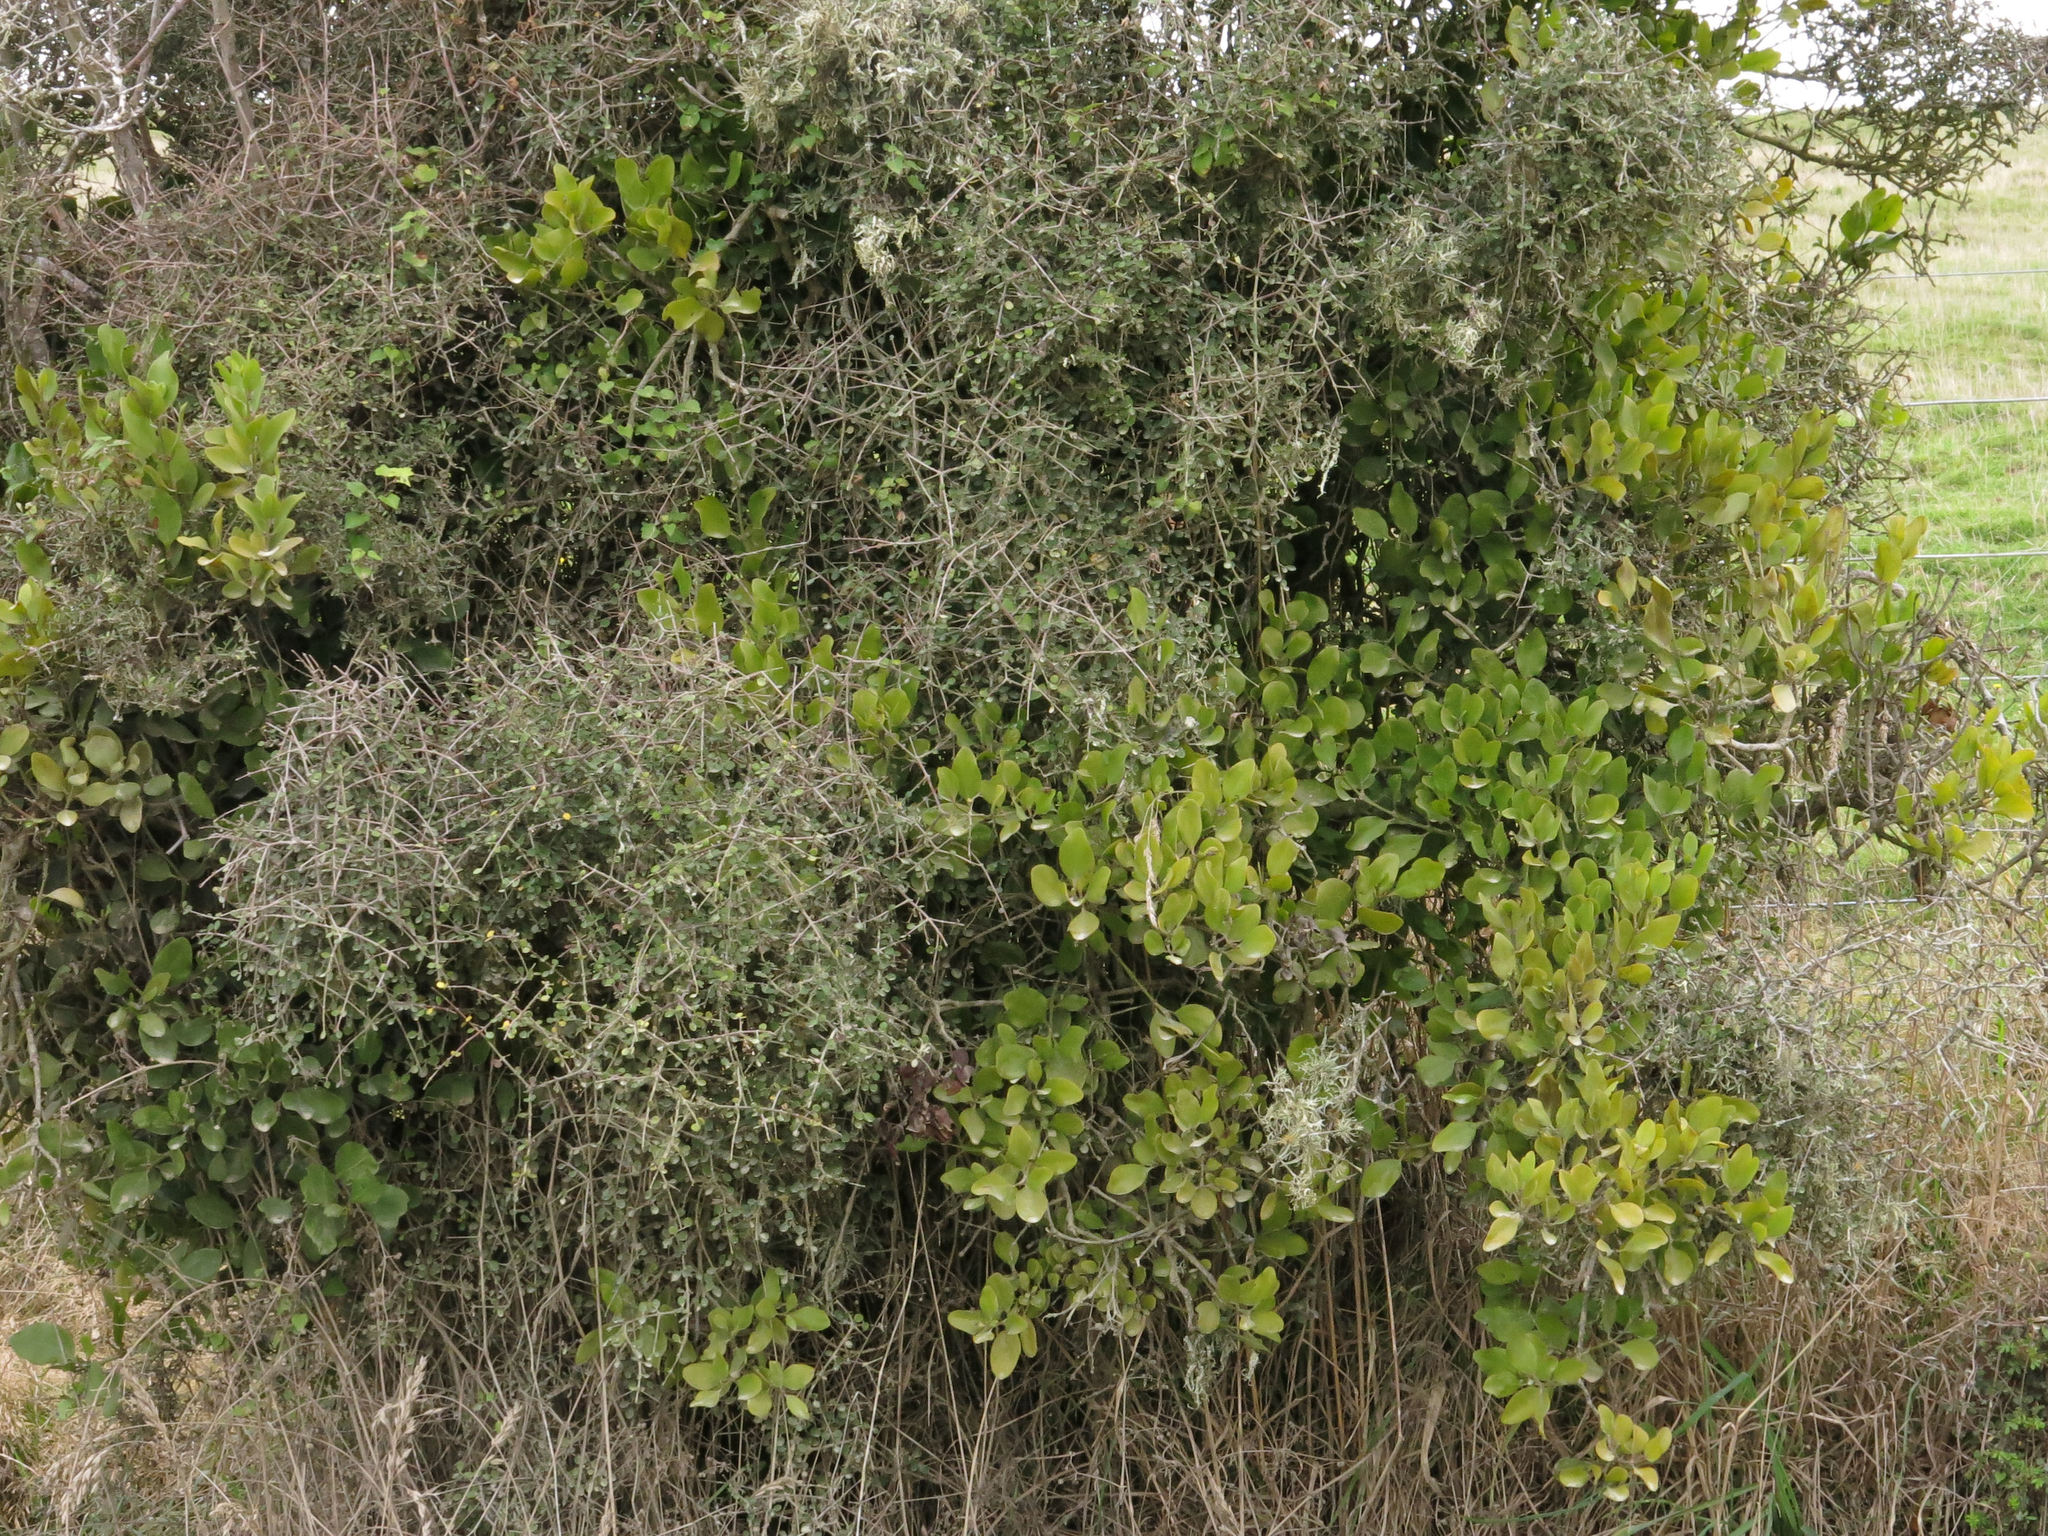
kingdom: Plantae
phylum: Tracheophyta
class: Magnoliopsida
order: Santalales
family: Loranthaceae
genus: Ileostylus
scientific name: Ileostylus micranthus
